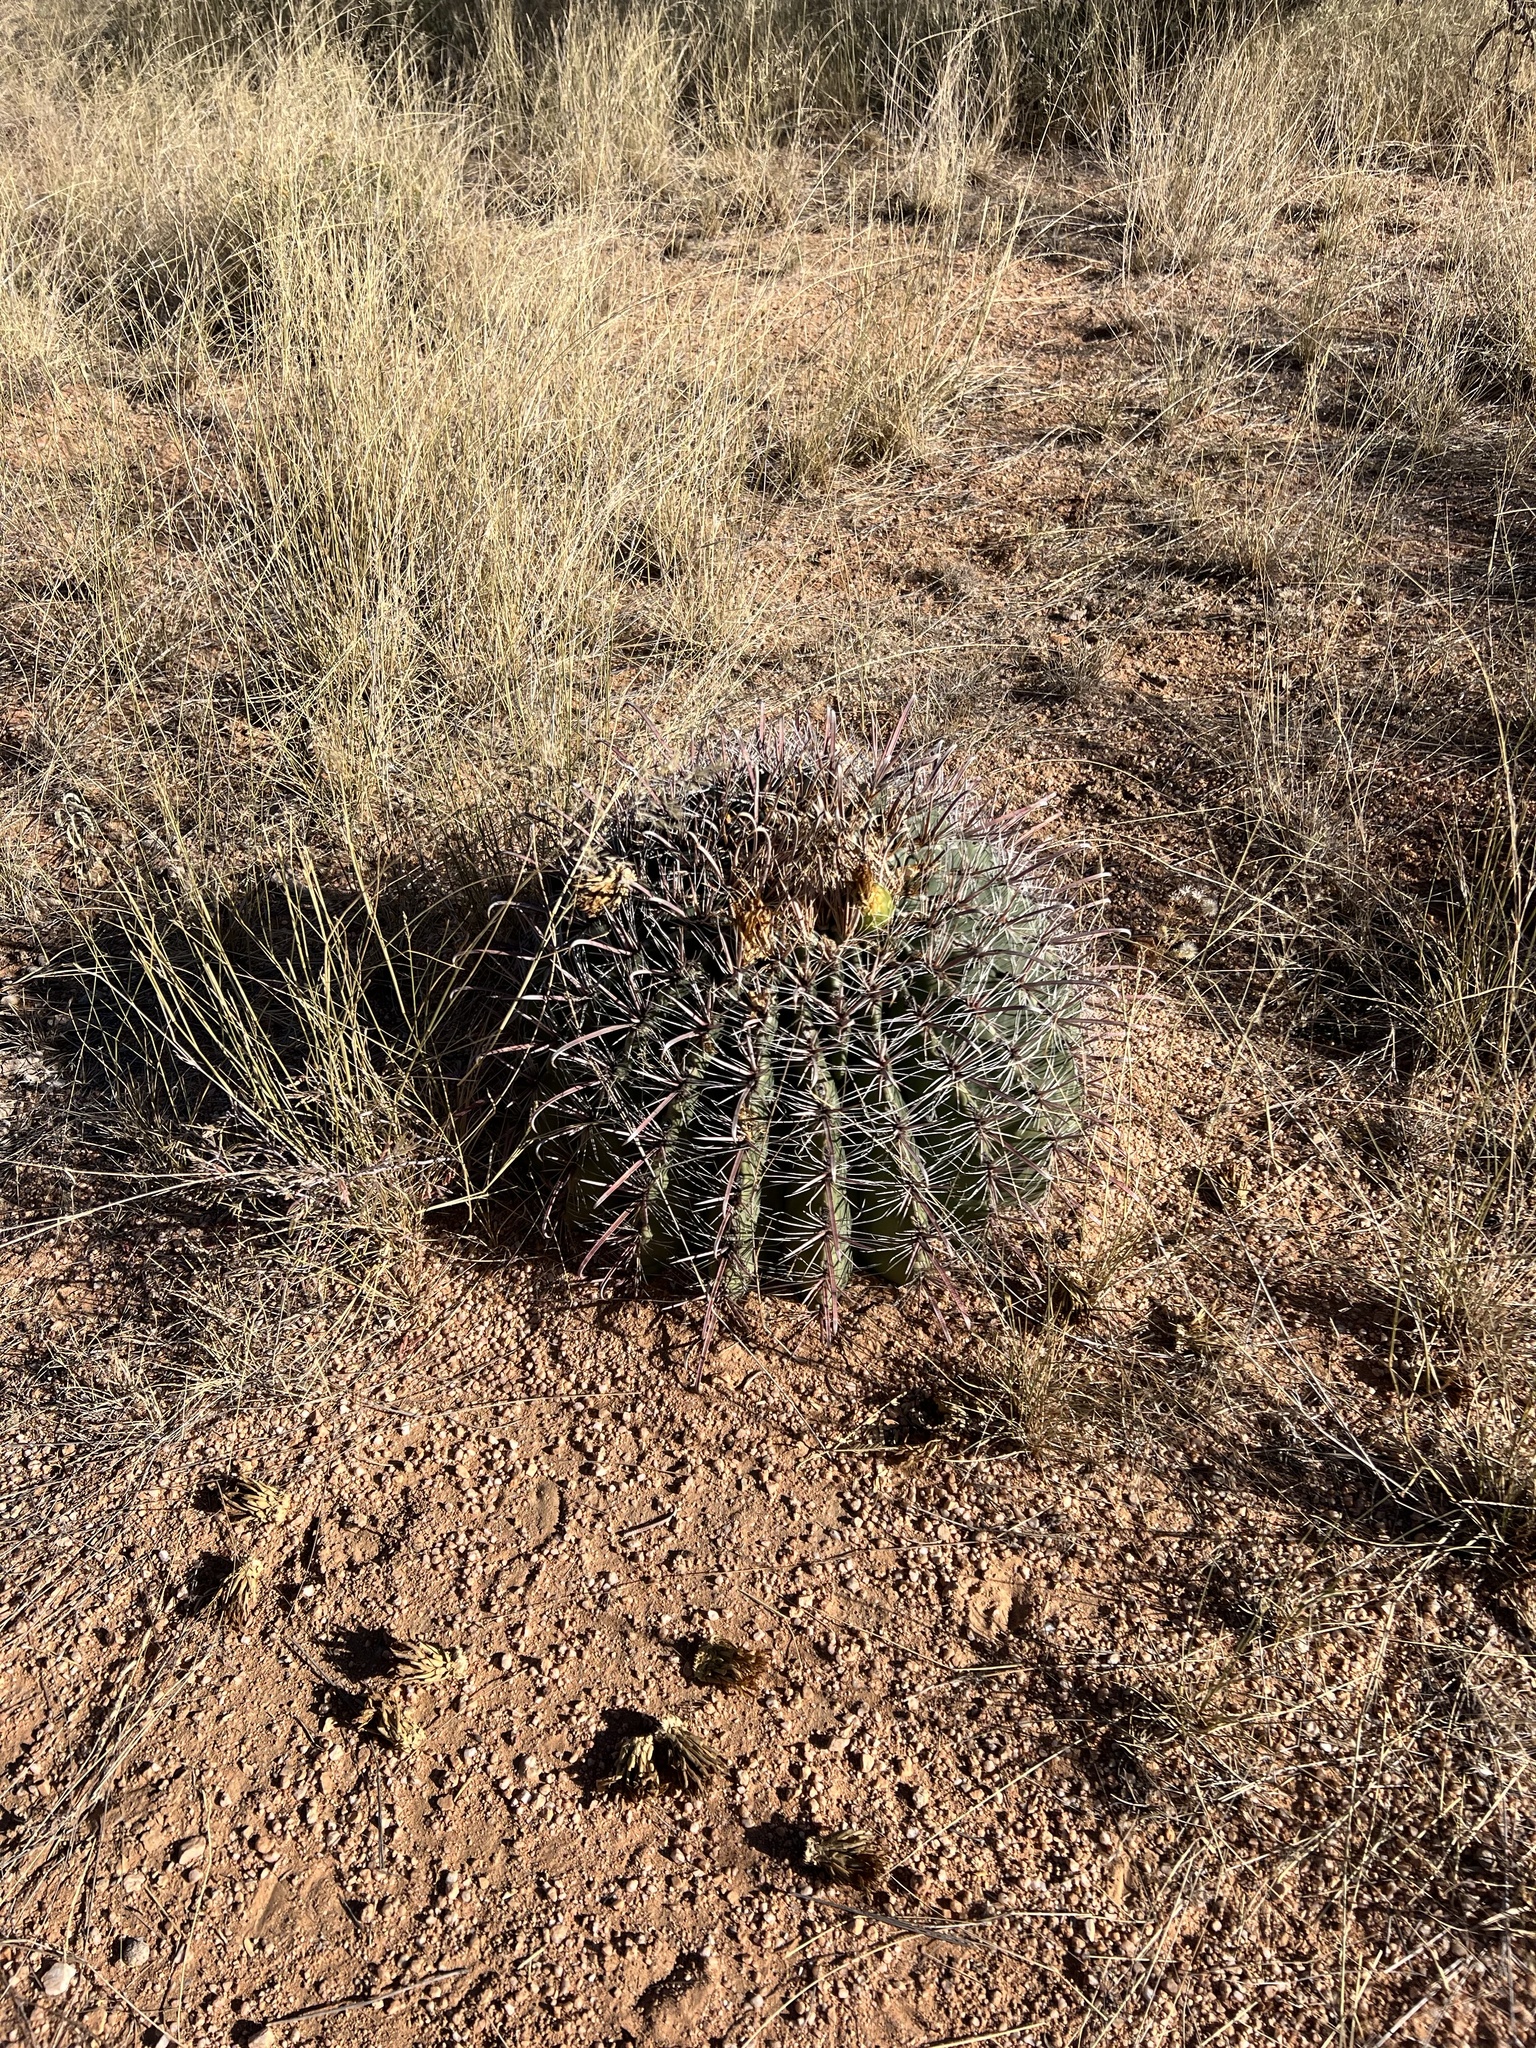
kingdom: Plantae
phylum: Tracheophyta
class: Magnoliopsida
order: Caryophyllales
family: Cactaceae
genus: Ferocactus
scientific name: Ferocactus wislizeni
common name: Candy barrel cactus
